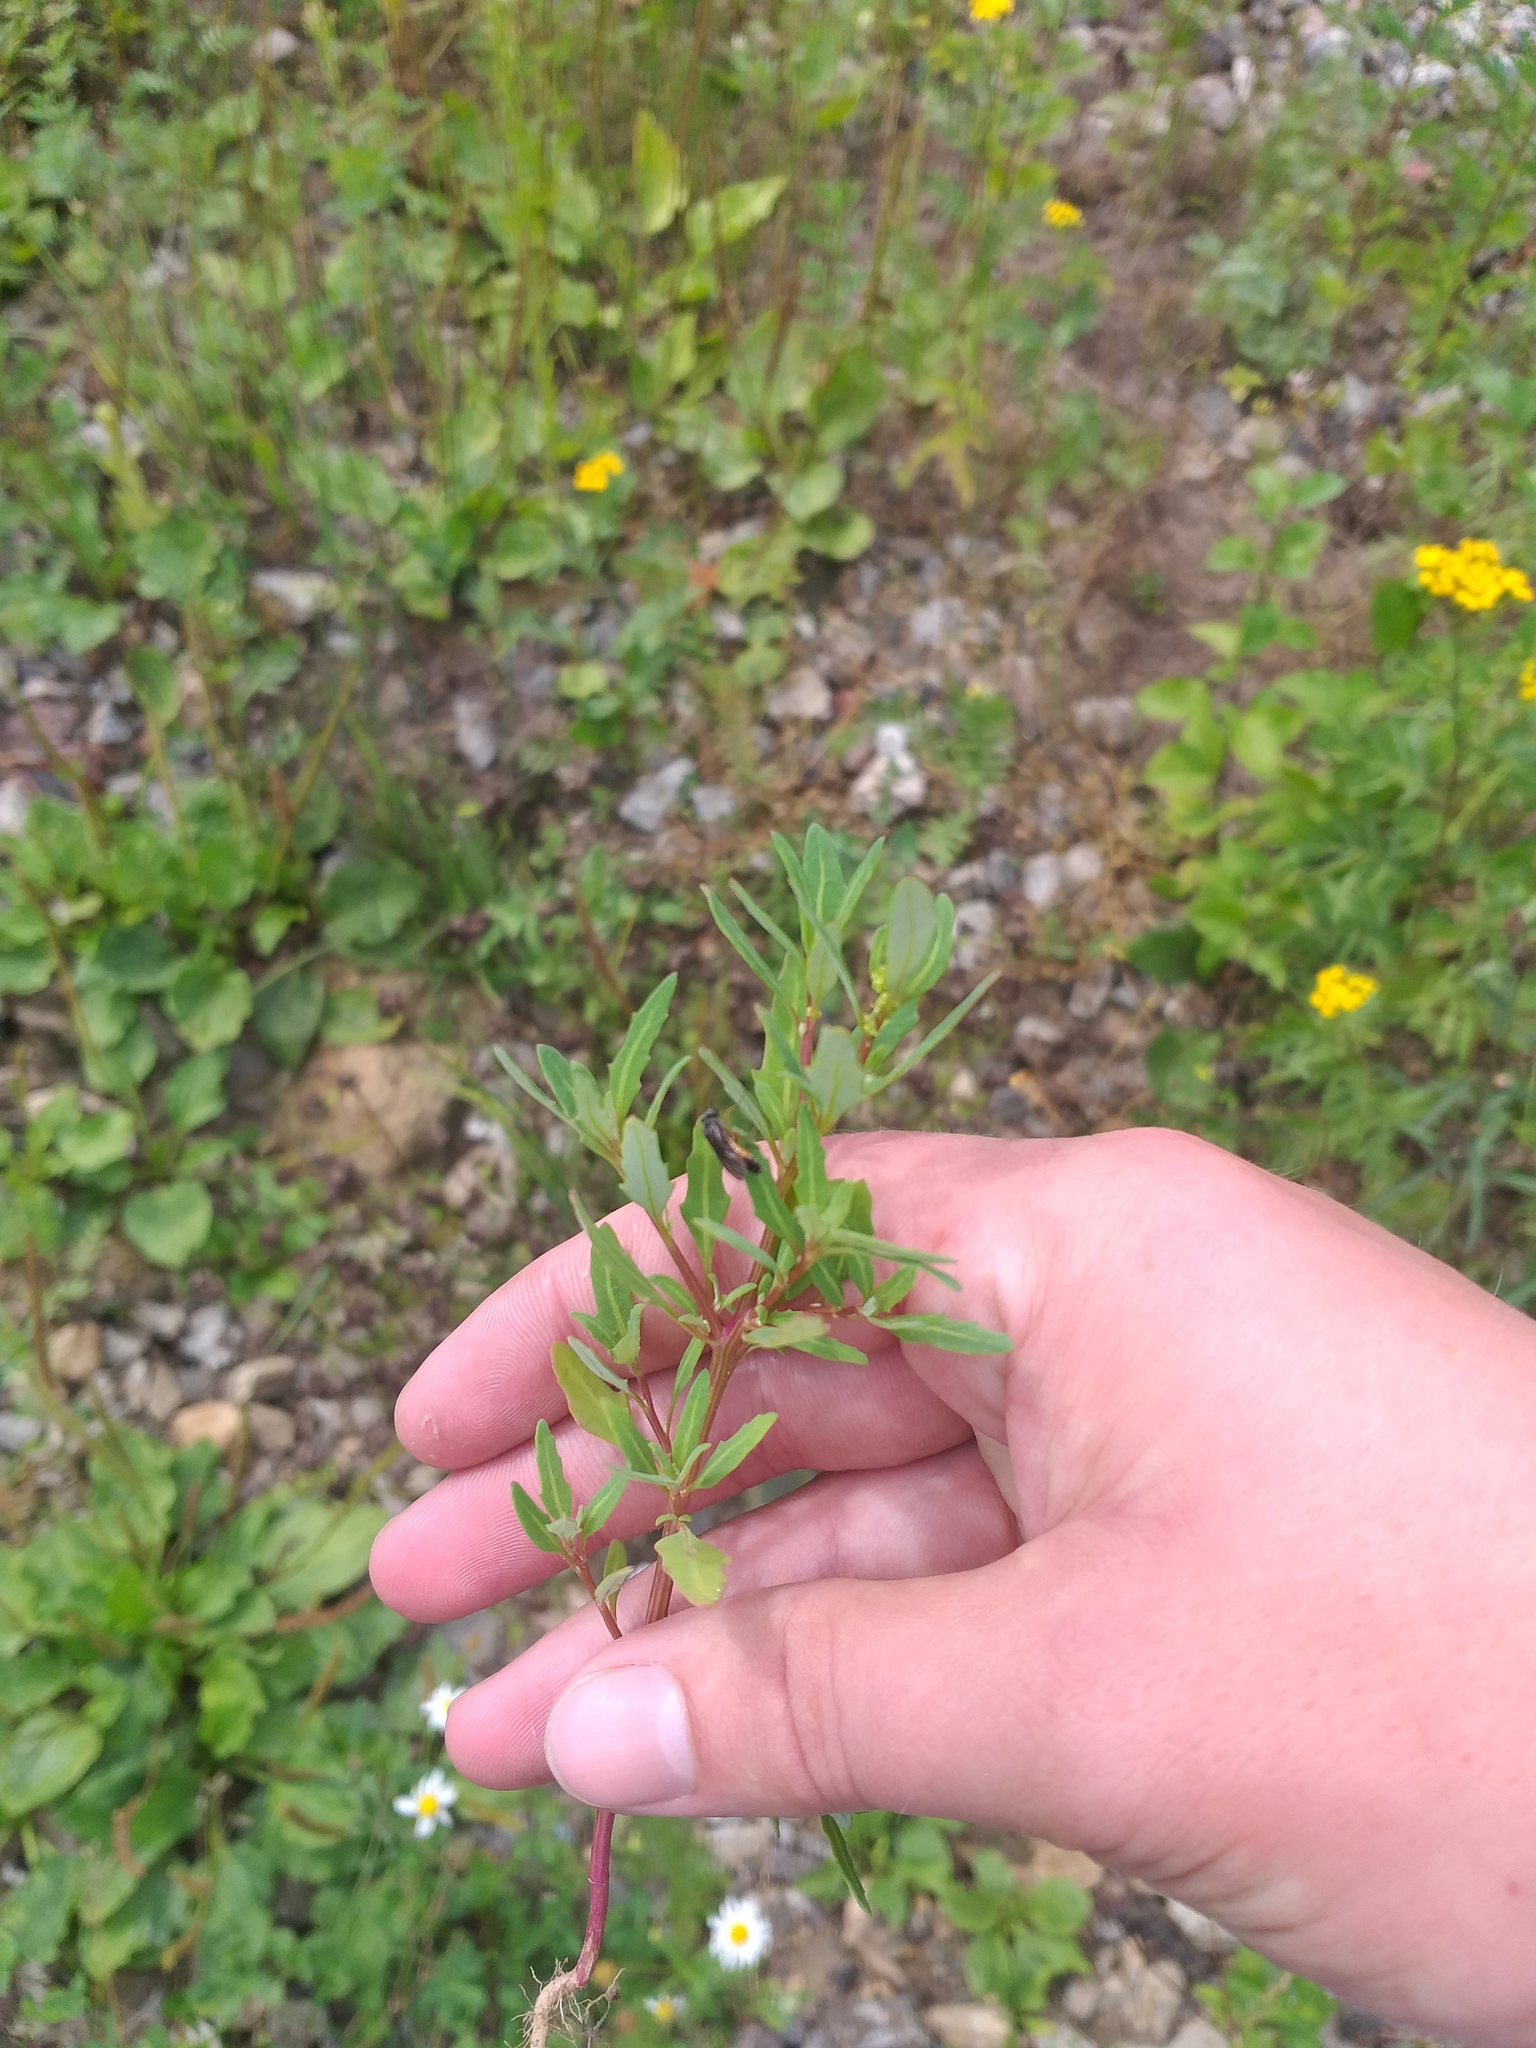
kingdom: Plantae
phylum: Tracheophyta
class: Magnoliopsida
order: Caryophyllales
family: Amaranthaceae
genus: Oxybasis
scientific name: Oxybasis glauca
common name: Glaucous goosefoot
